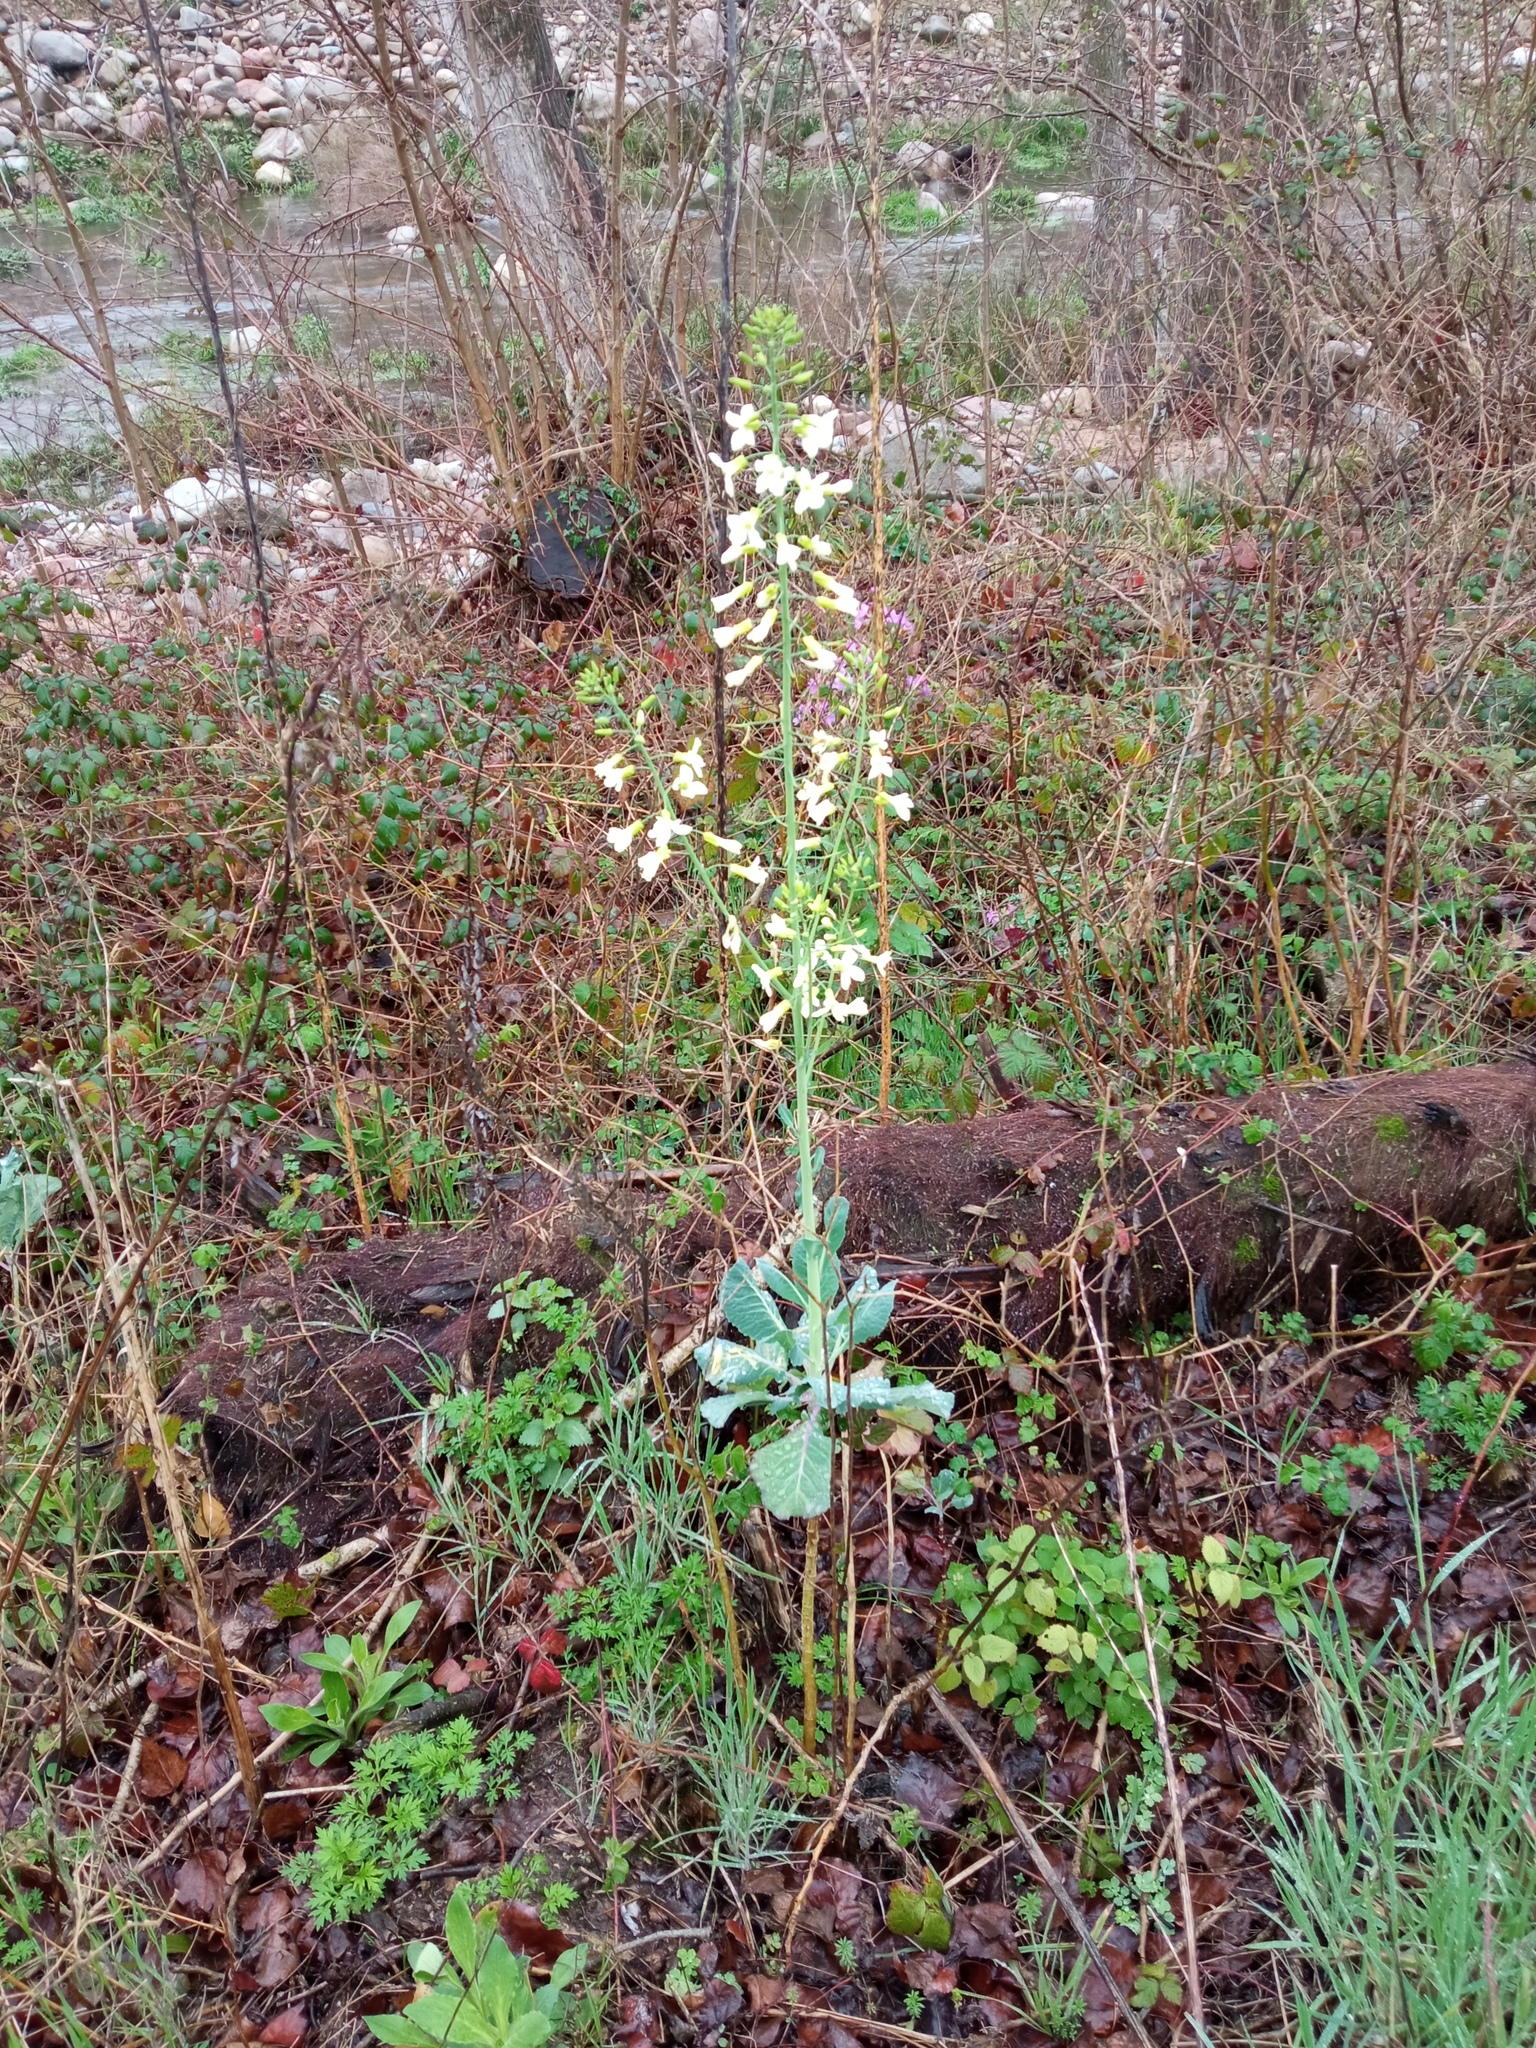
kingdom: Plantae
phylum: Tracheophyta
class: Magnoliopsida
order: Brassicales
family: Brassicaceae
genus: Brassica
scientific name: Brassica oleracea
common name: Cabbage
